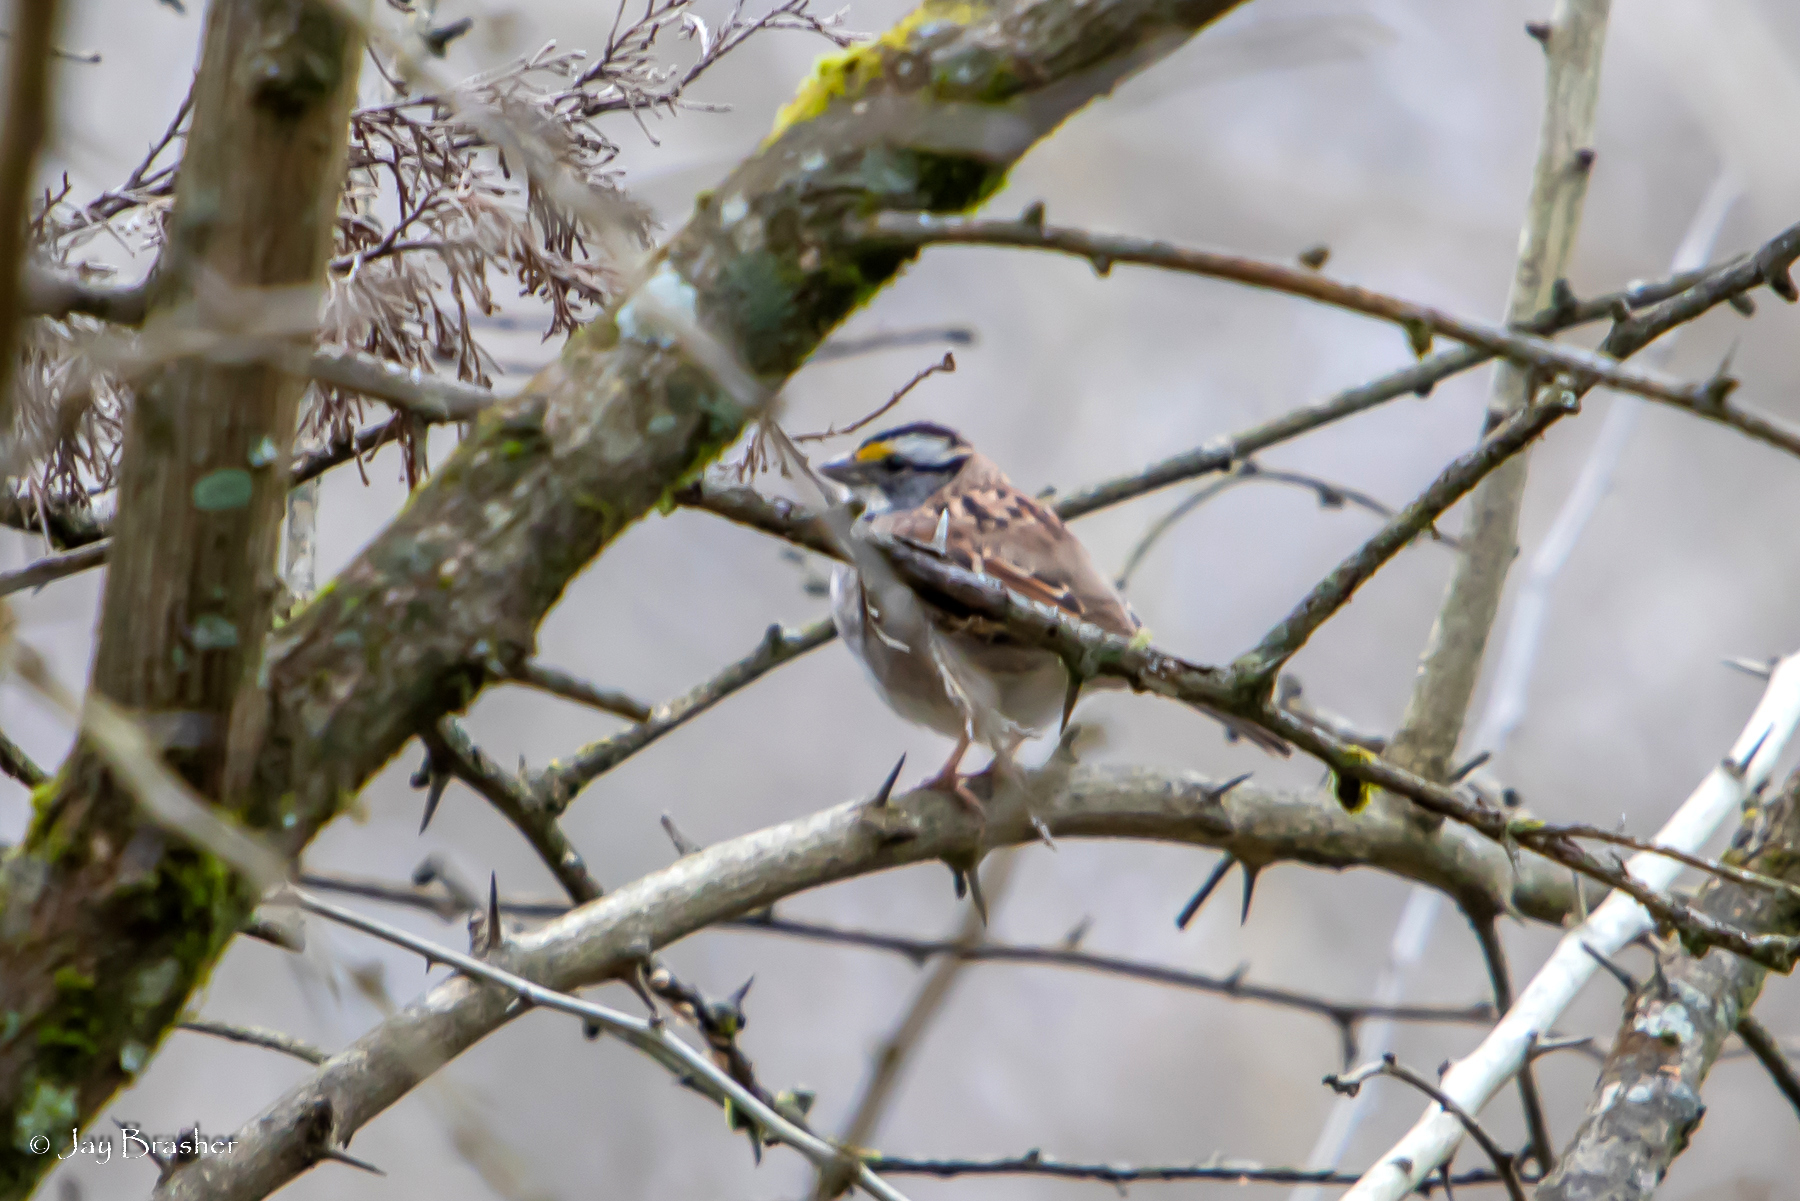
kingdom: Animalia
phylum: Chordata
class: Aves
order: Passeriformes
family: Passerellidae
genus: Zonotrichia
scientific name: Zonotrichia albicollis
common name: White-throated sparrow
